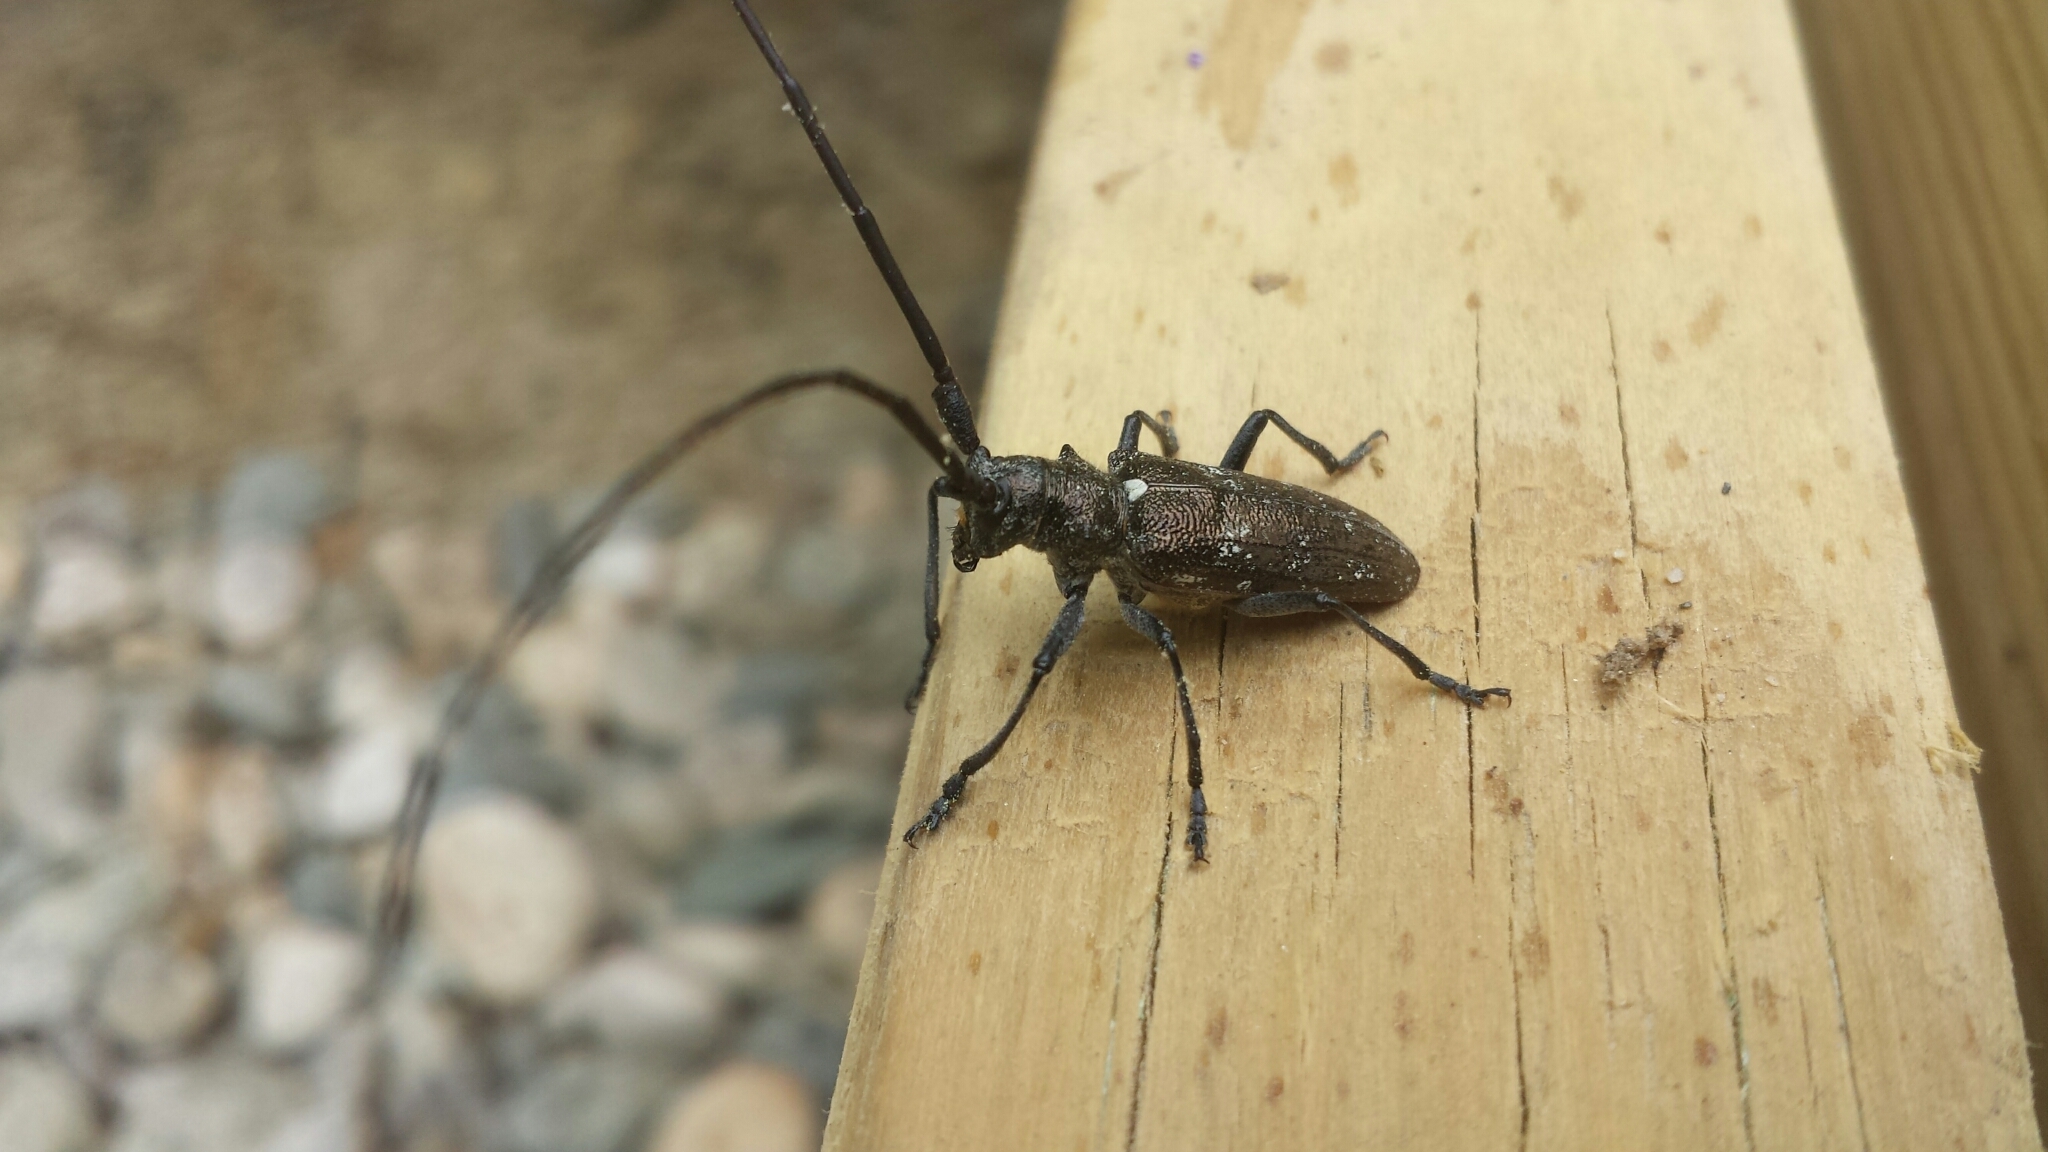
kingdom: Animalia
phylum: Arthropoda
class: Insecta
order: Coleoptera
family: Cerambycidae
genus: Monochamus
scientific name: Monochamus scutellatus
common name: White-spotted sawyer beetle
